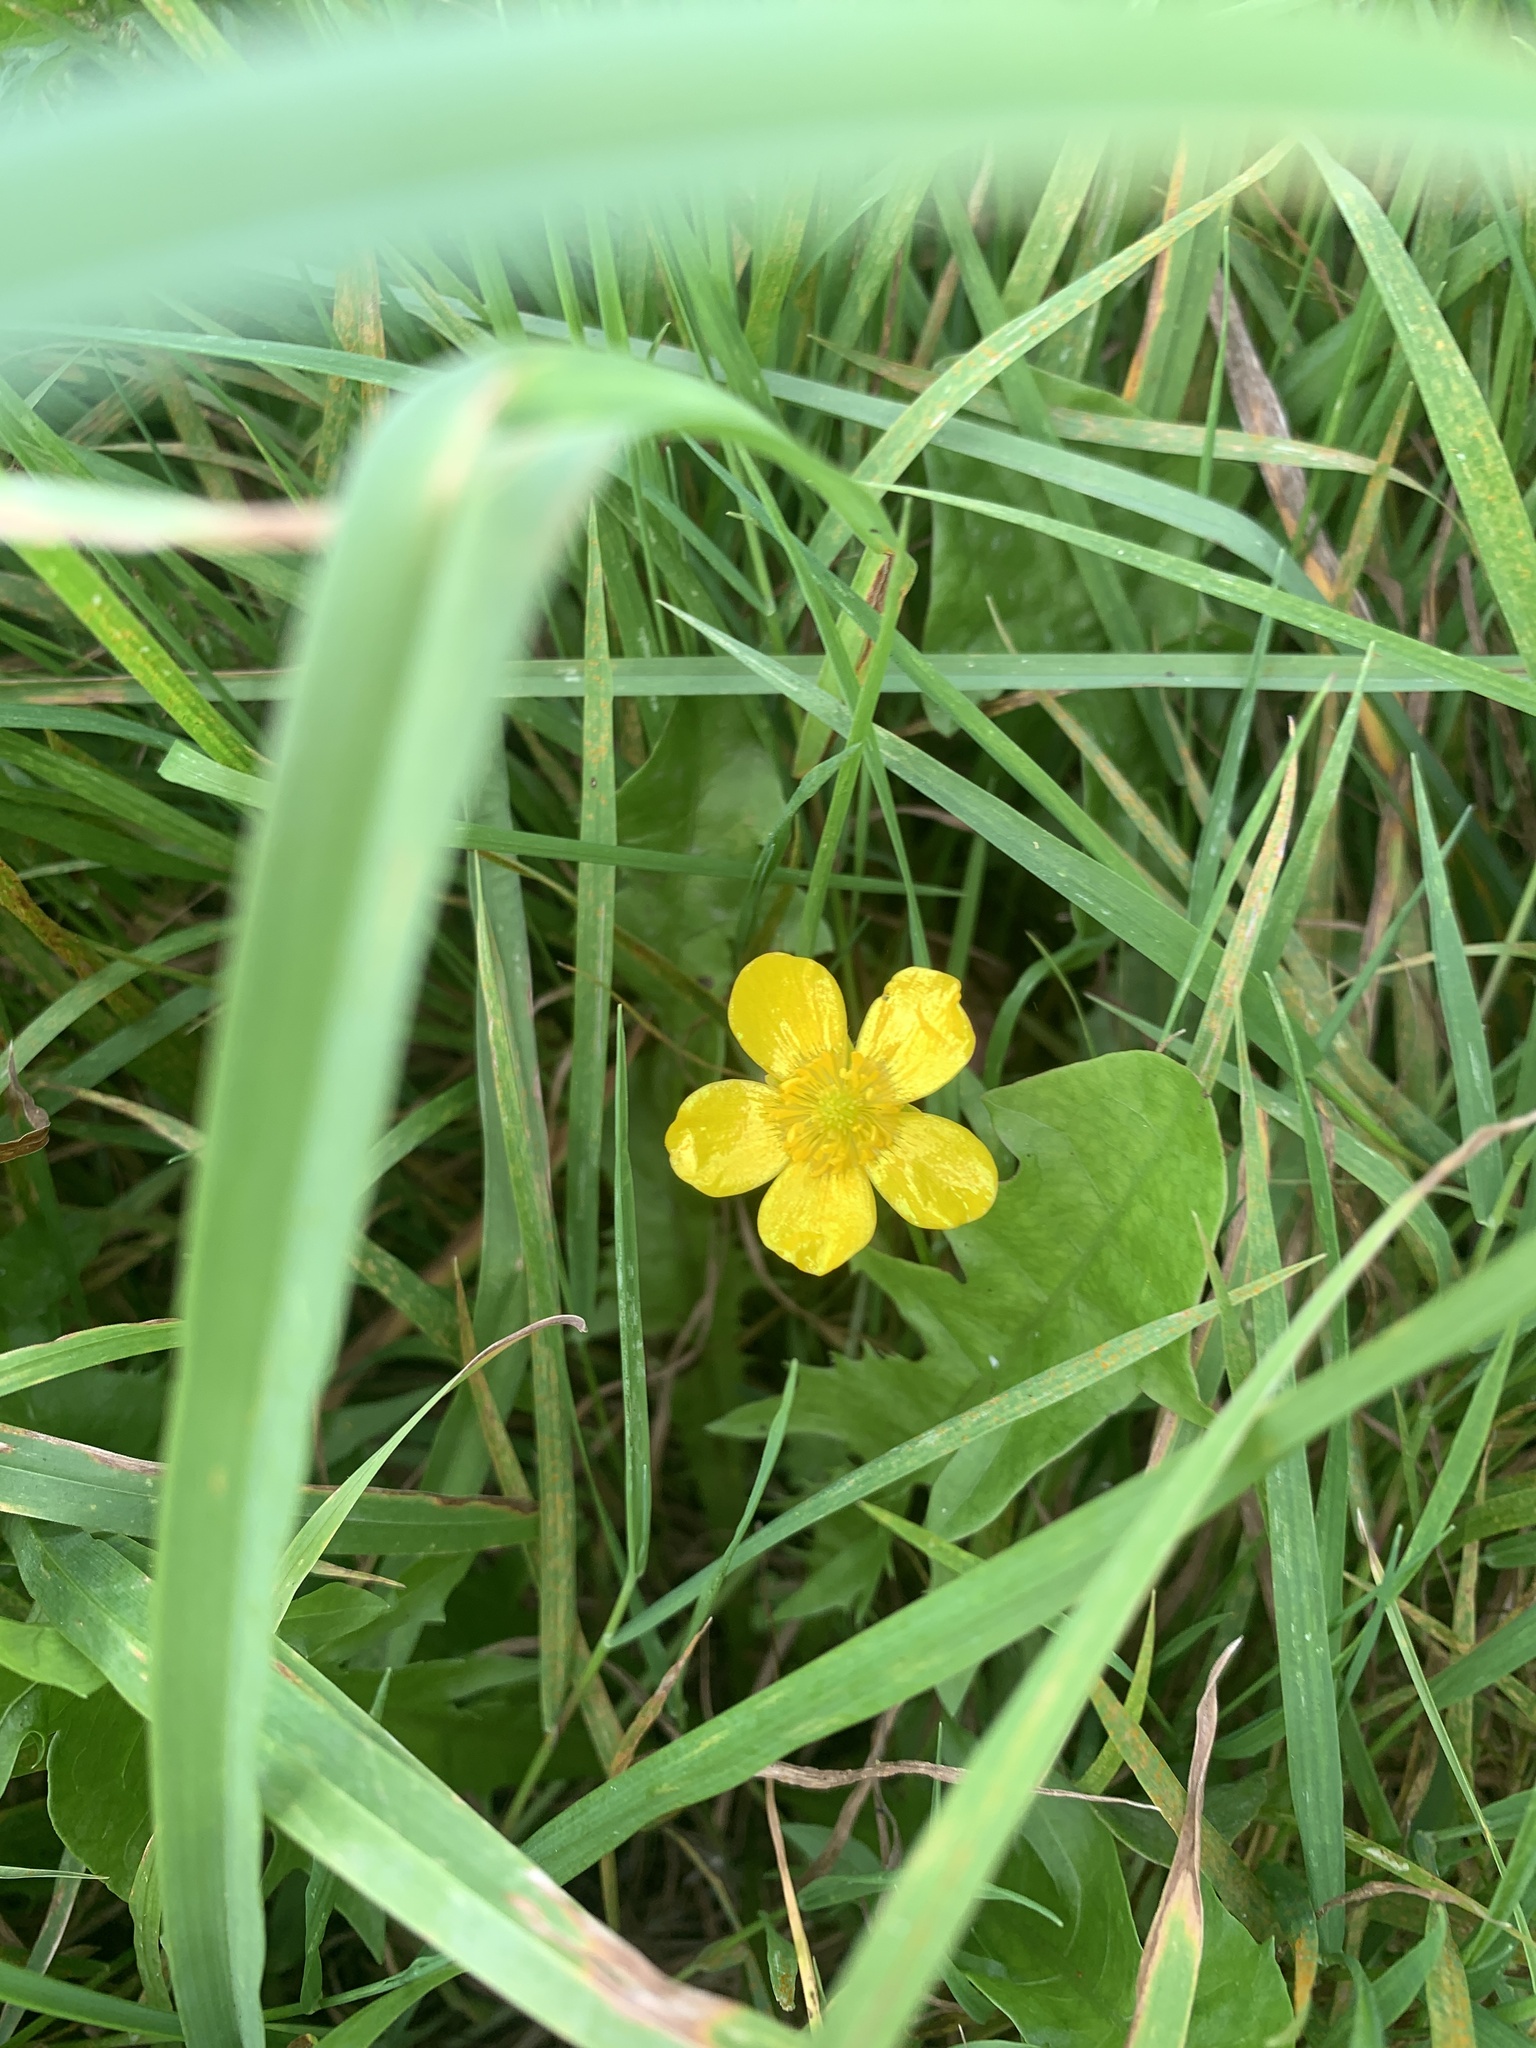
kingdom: Plantae
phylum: Tracheophyta
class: Magnoliopsida
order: Ranunculales
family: Ranunculaceae
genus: Ranunculus
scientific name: Ranunculus acris
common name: Meadow buttercup
